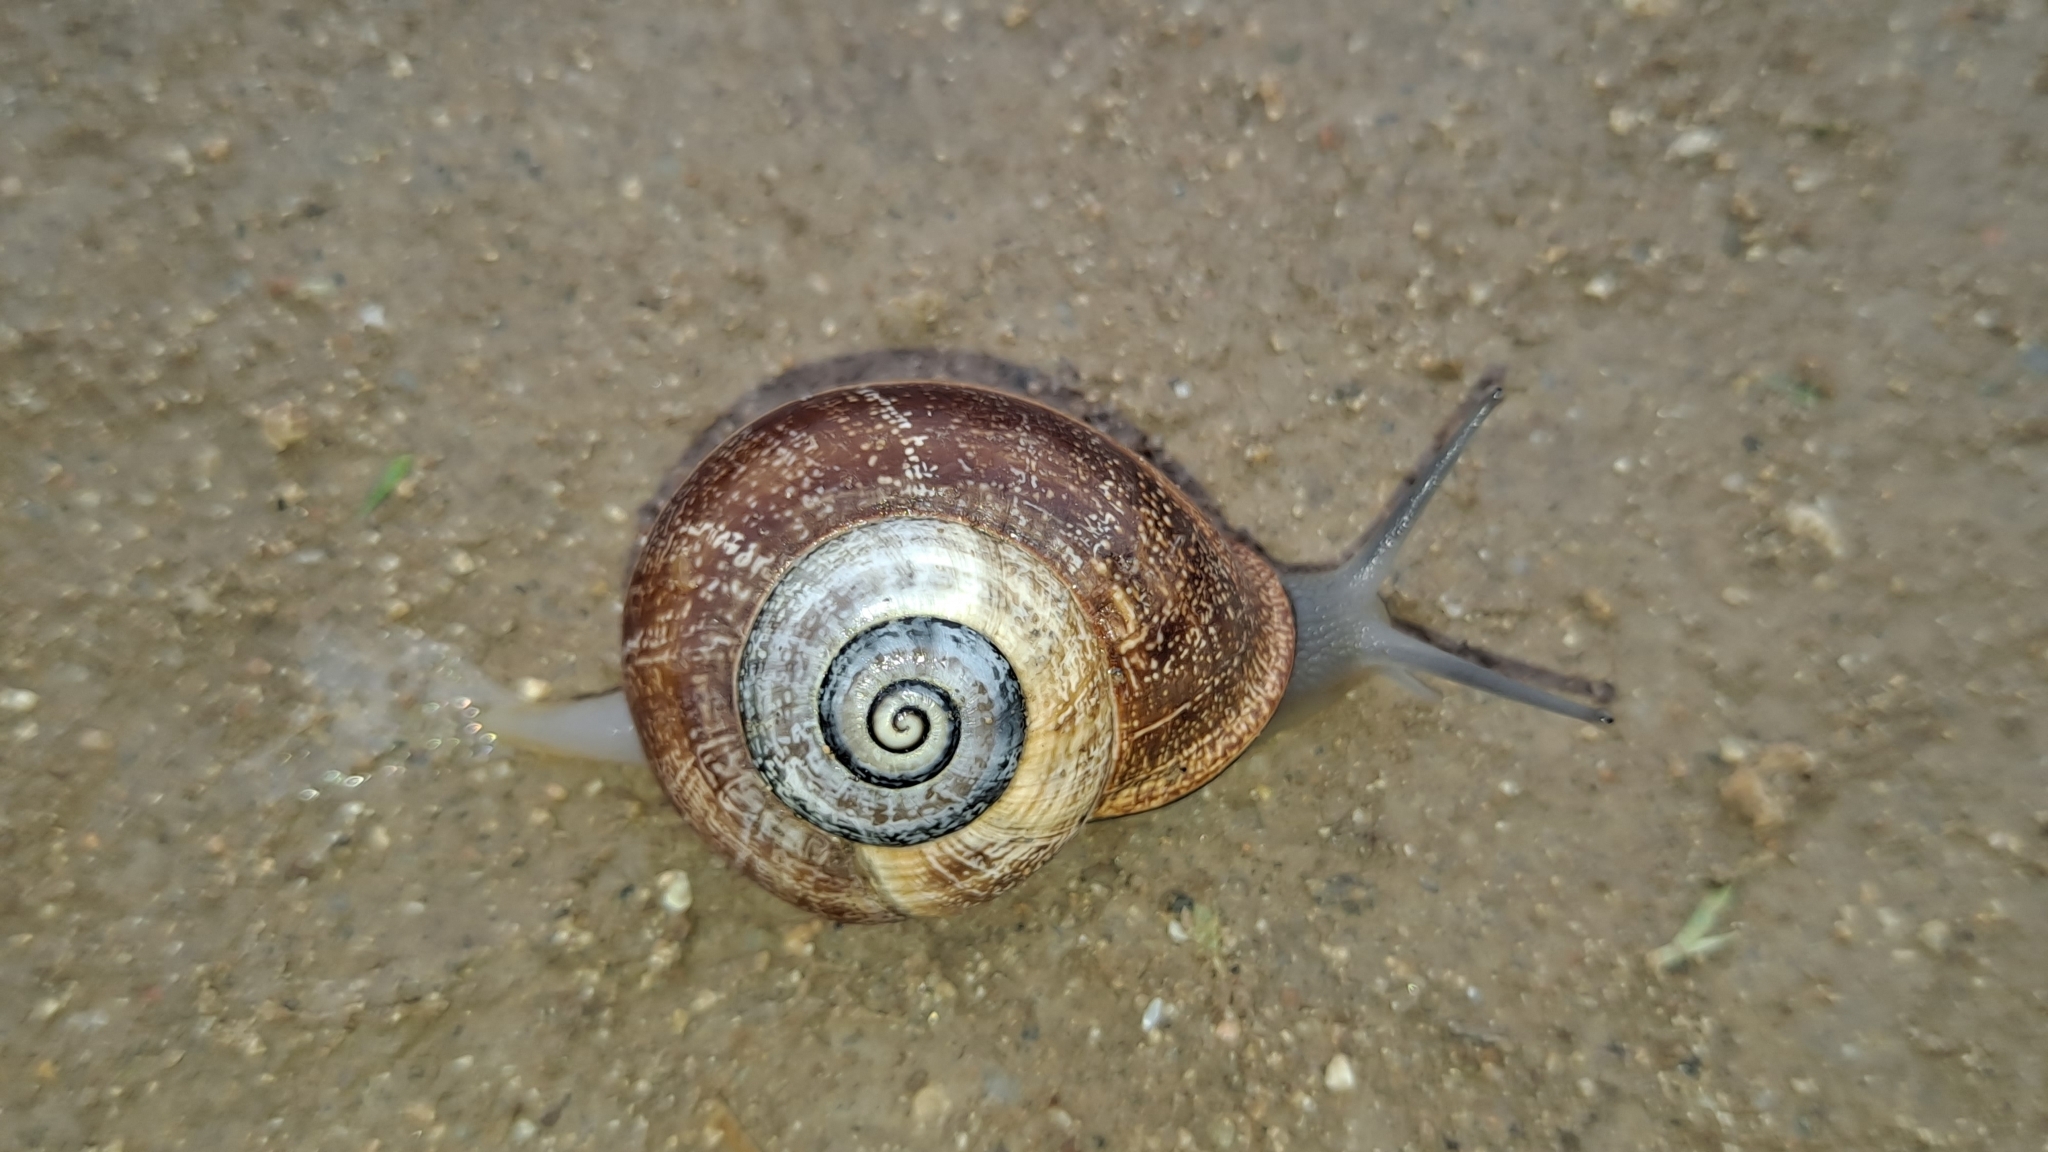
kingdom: Animalia
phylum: Mollusca
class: Gastropoda
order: Stylommatophora
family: Helicidae
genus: Otala
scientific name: Otala punctata
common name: Milk snail
